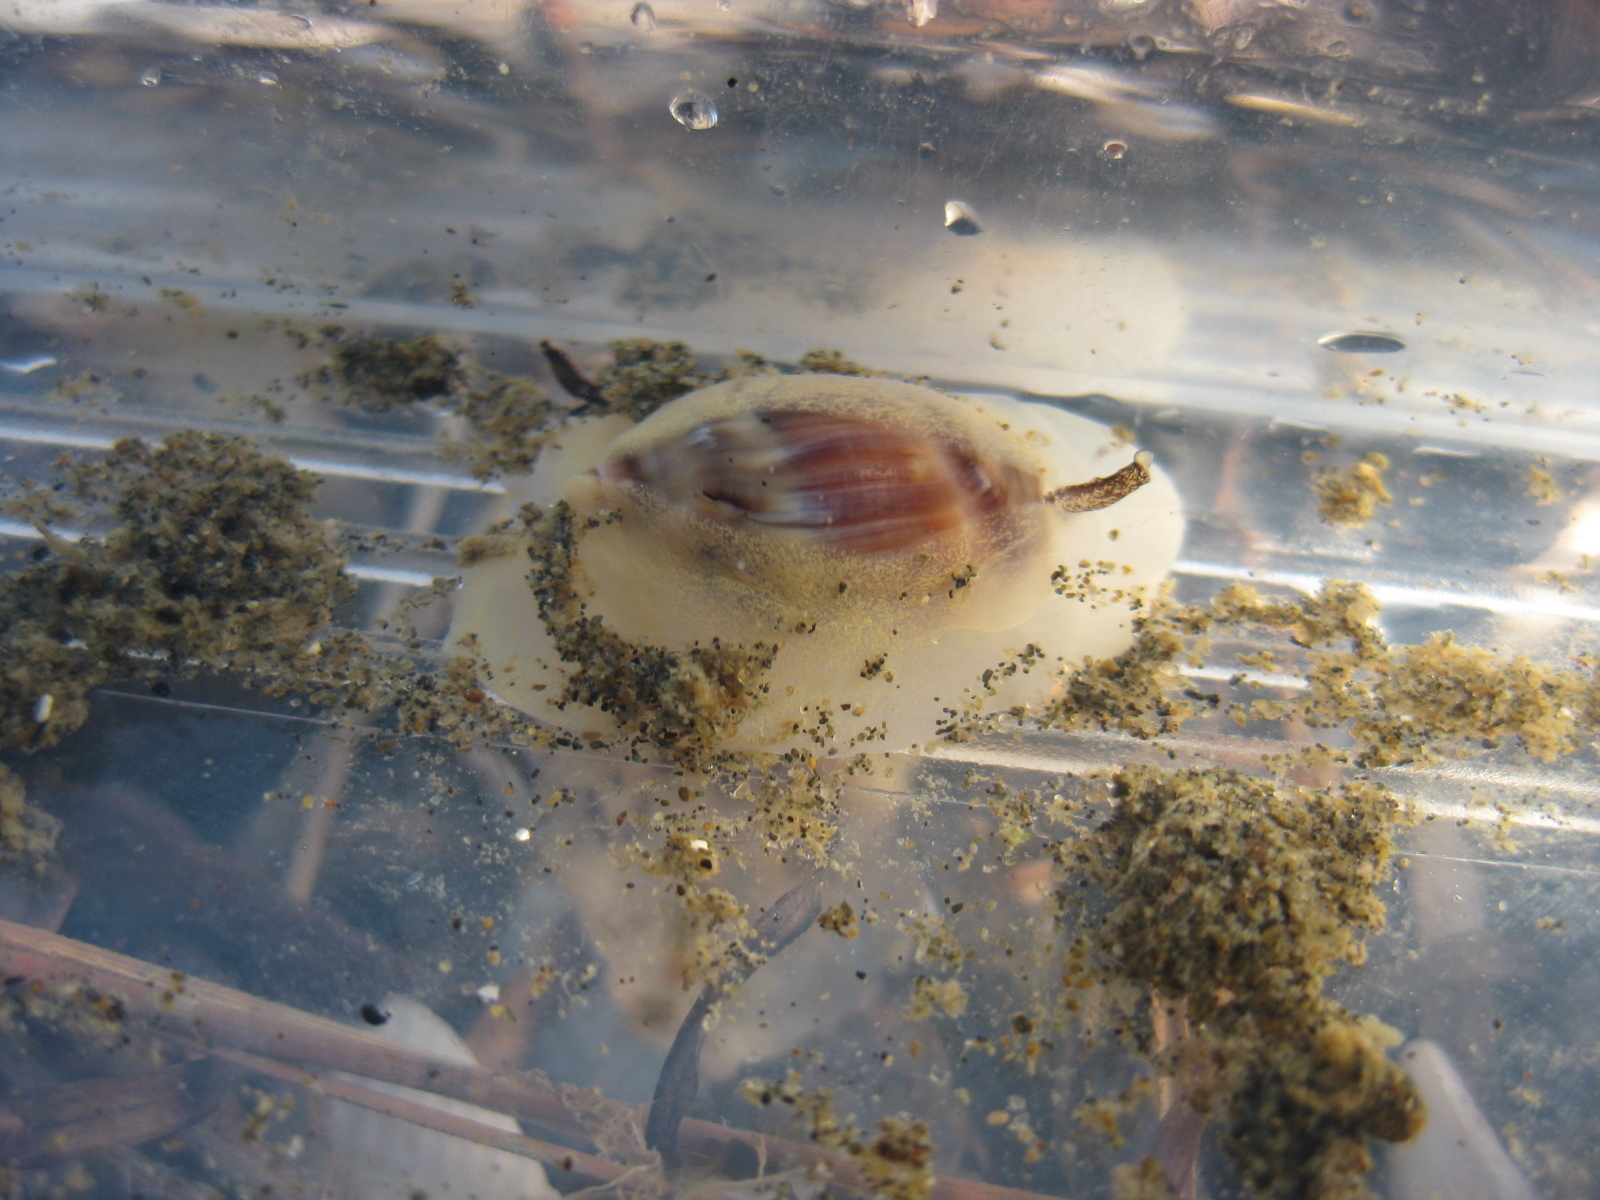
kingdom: Animalia
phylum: Mollusca
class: Gastropoda
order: Neogastropoda
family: Ancillariidae
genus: Amalda
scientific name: Amalda depressa
